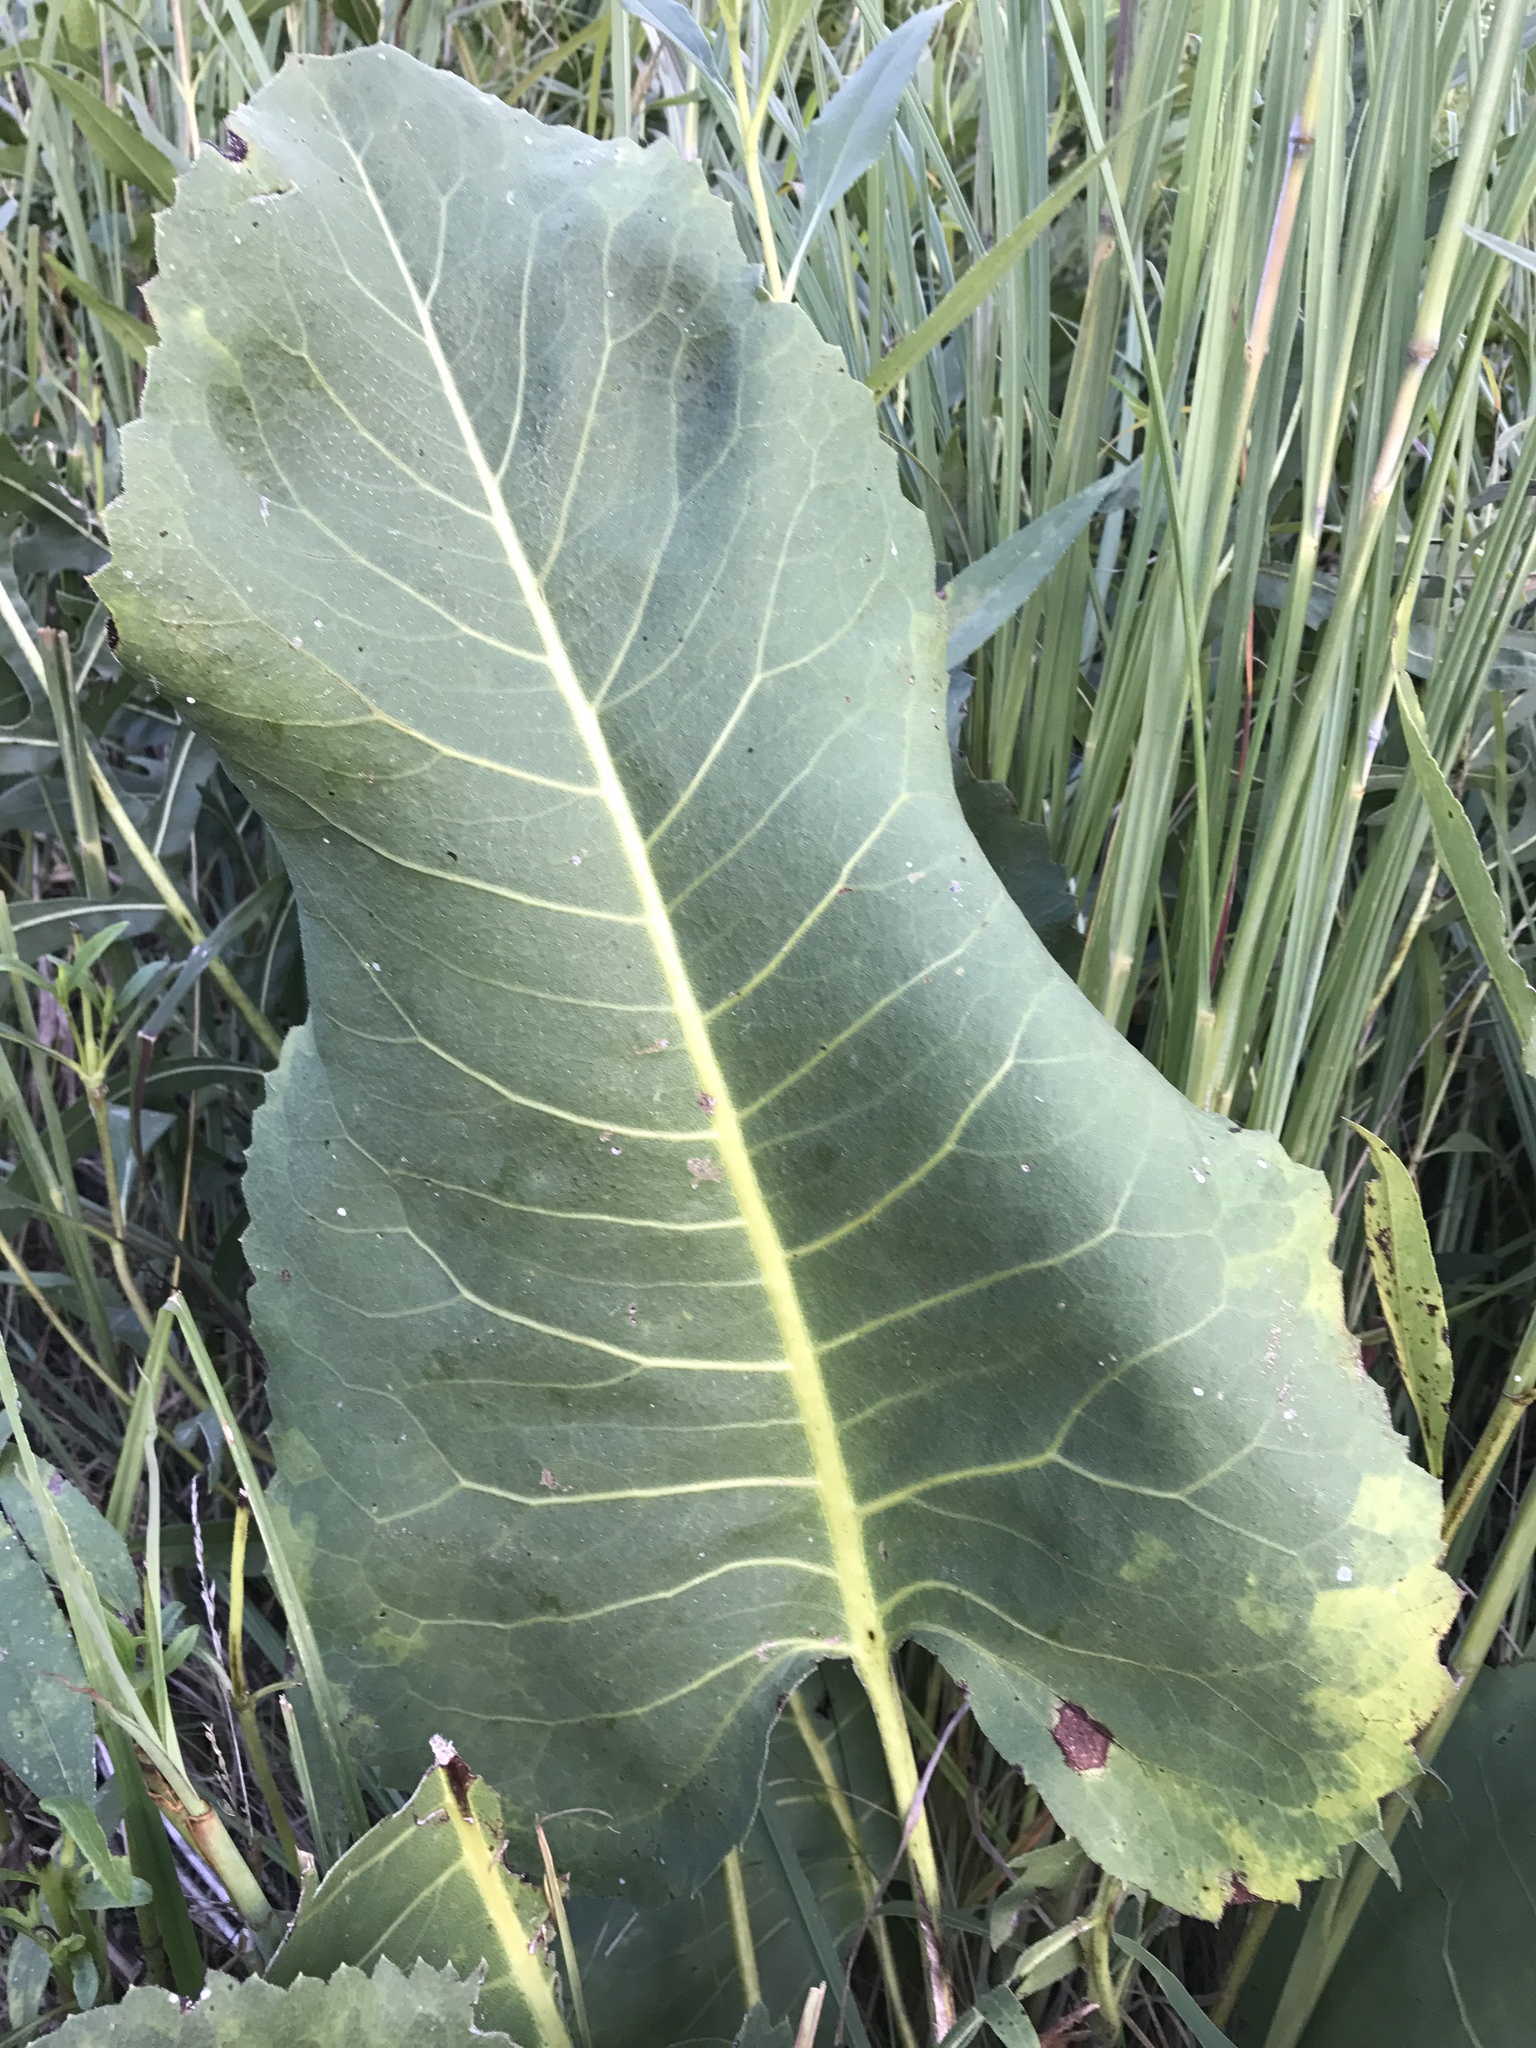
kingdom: Plantae
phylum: Tracheophyta
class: Magnoliopsida
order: Asterales
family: Asteraceae
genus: Silphium
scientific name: Silphium terebinthinaceum
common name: Basal-leaf rosinweed
